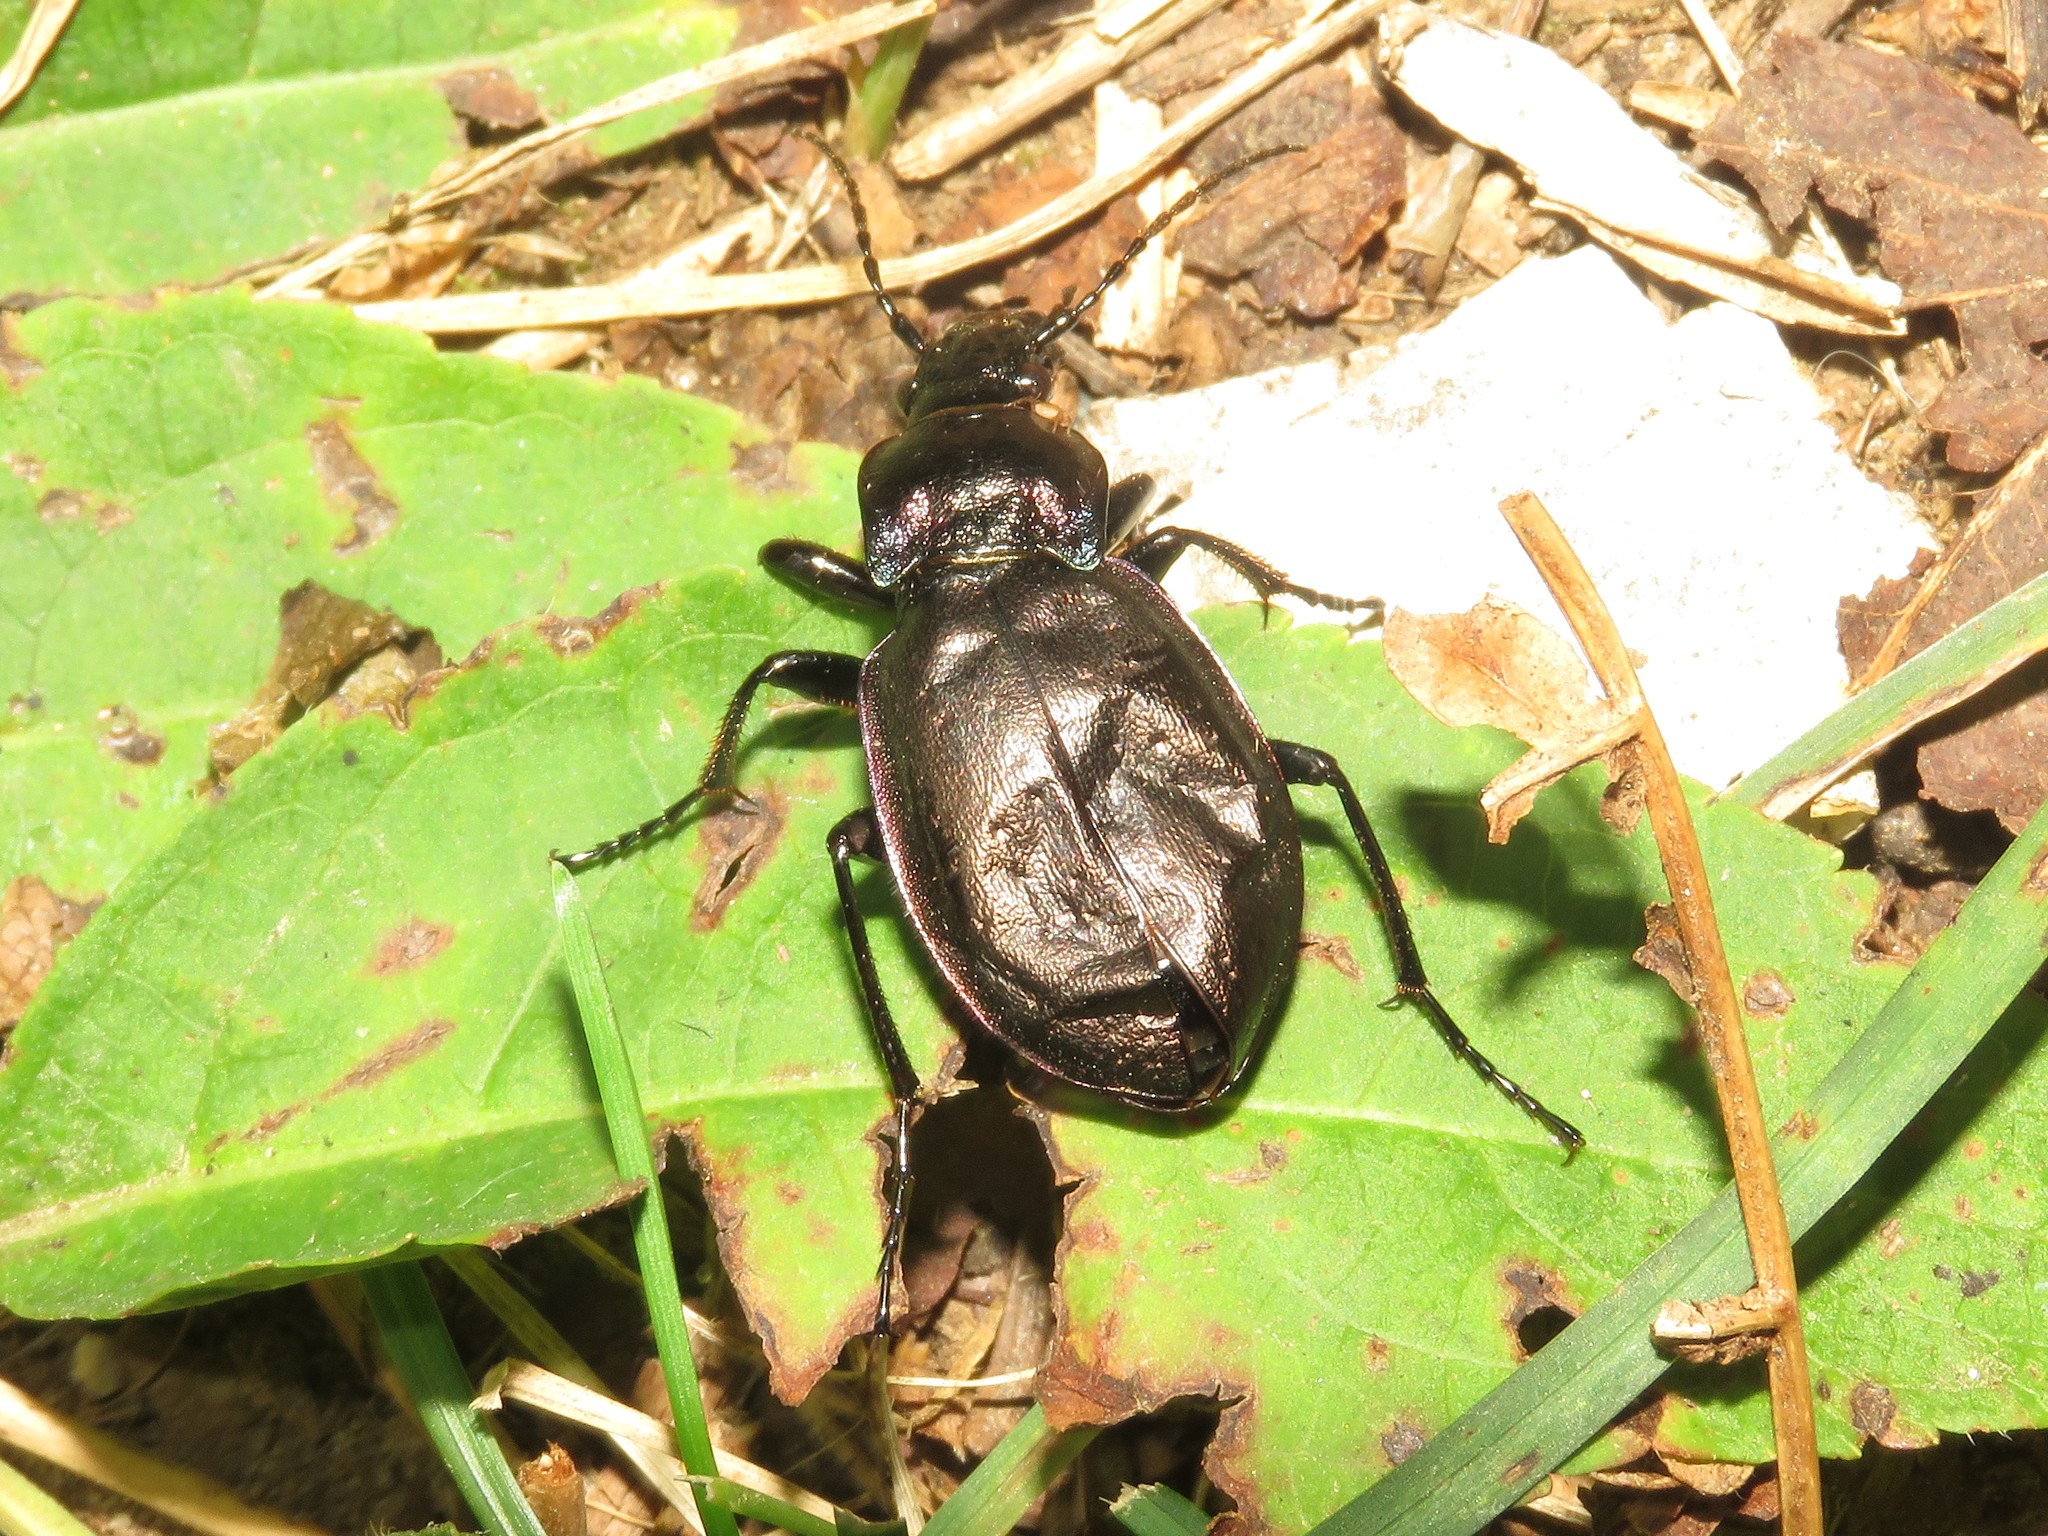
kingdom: Animalia
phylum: Arthropoda
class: Insecta
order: Coleoptera
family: Carabidae
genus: Carabus
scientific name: Carabus nemoralis
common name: European ground beetle
